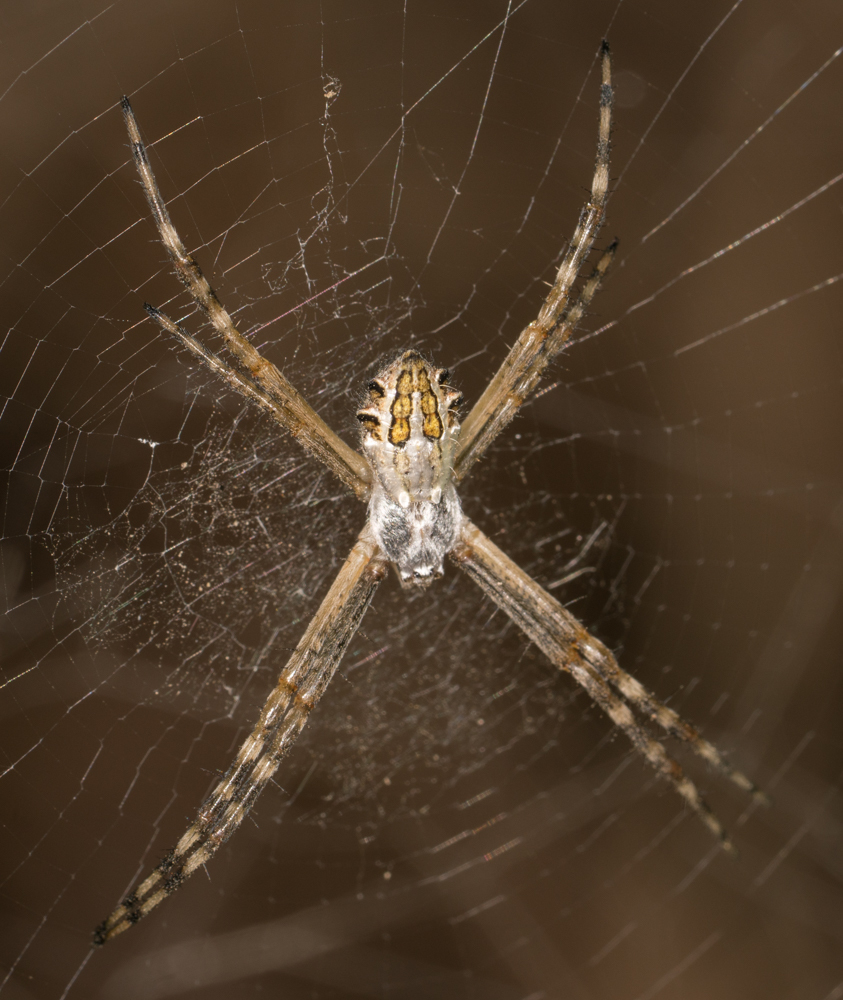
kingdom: Animalia
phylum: Arthropoda
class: Arachnida
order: Araneae
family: Araneidae
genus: Argiope
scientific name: Argiope argentata
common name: Orb weavers
